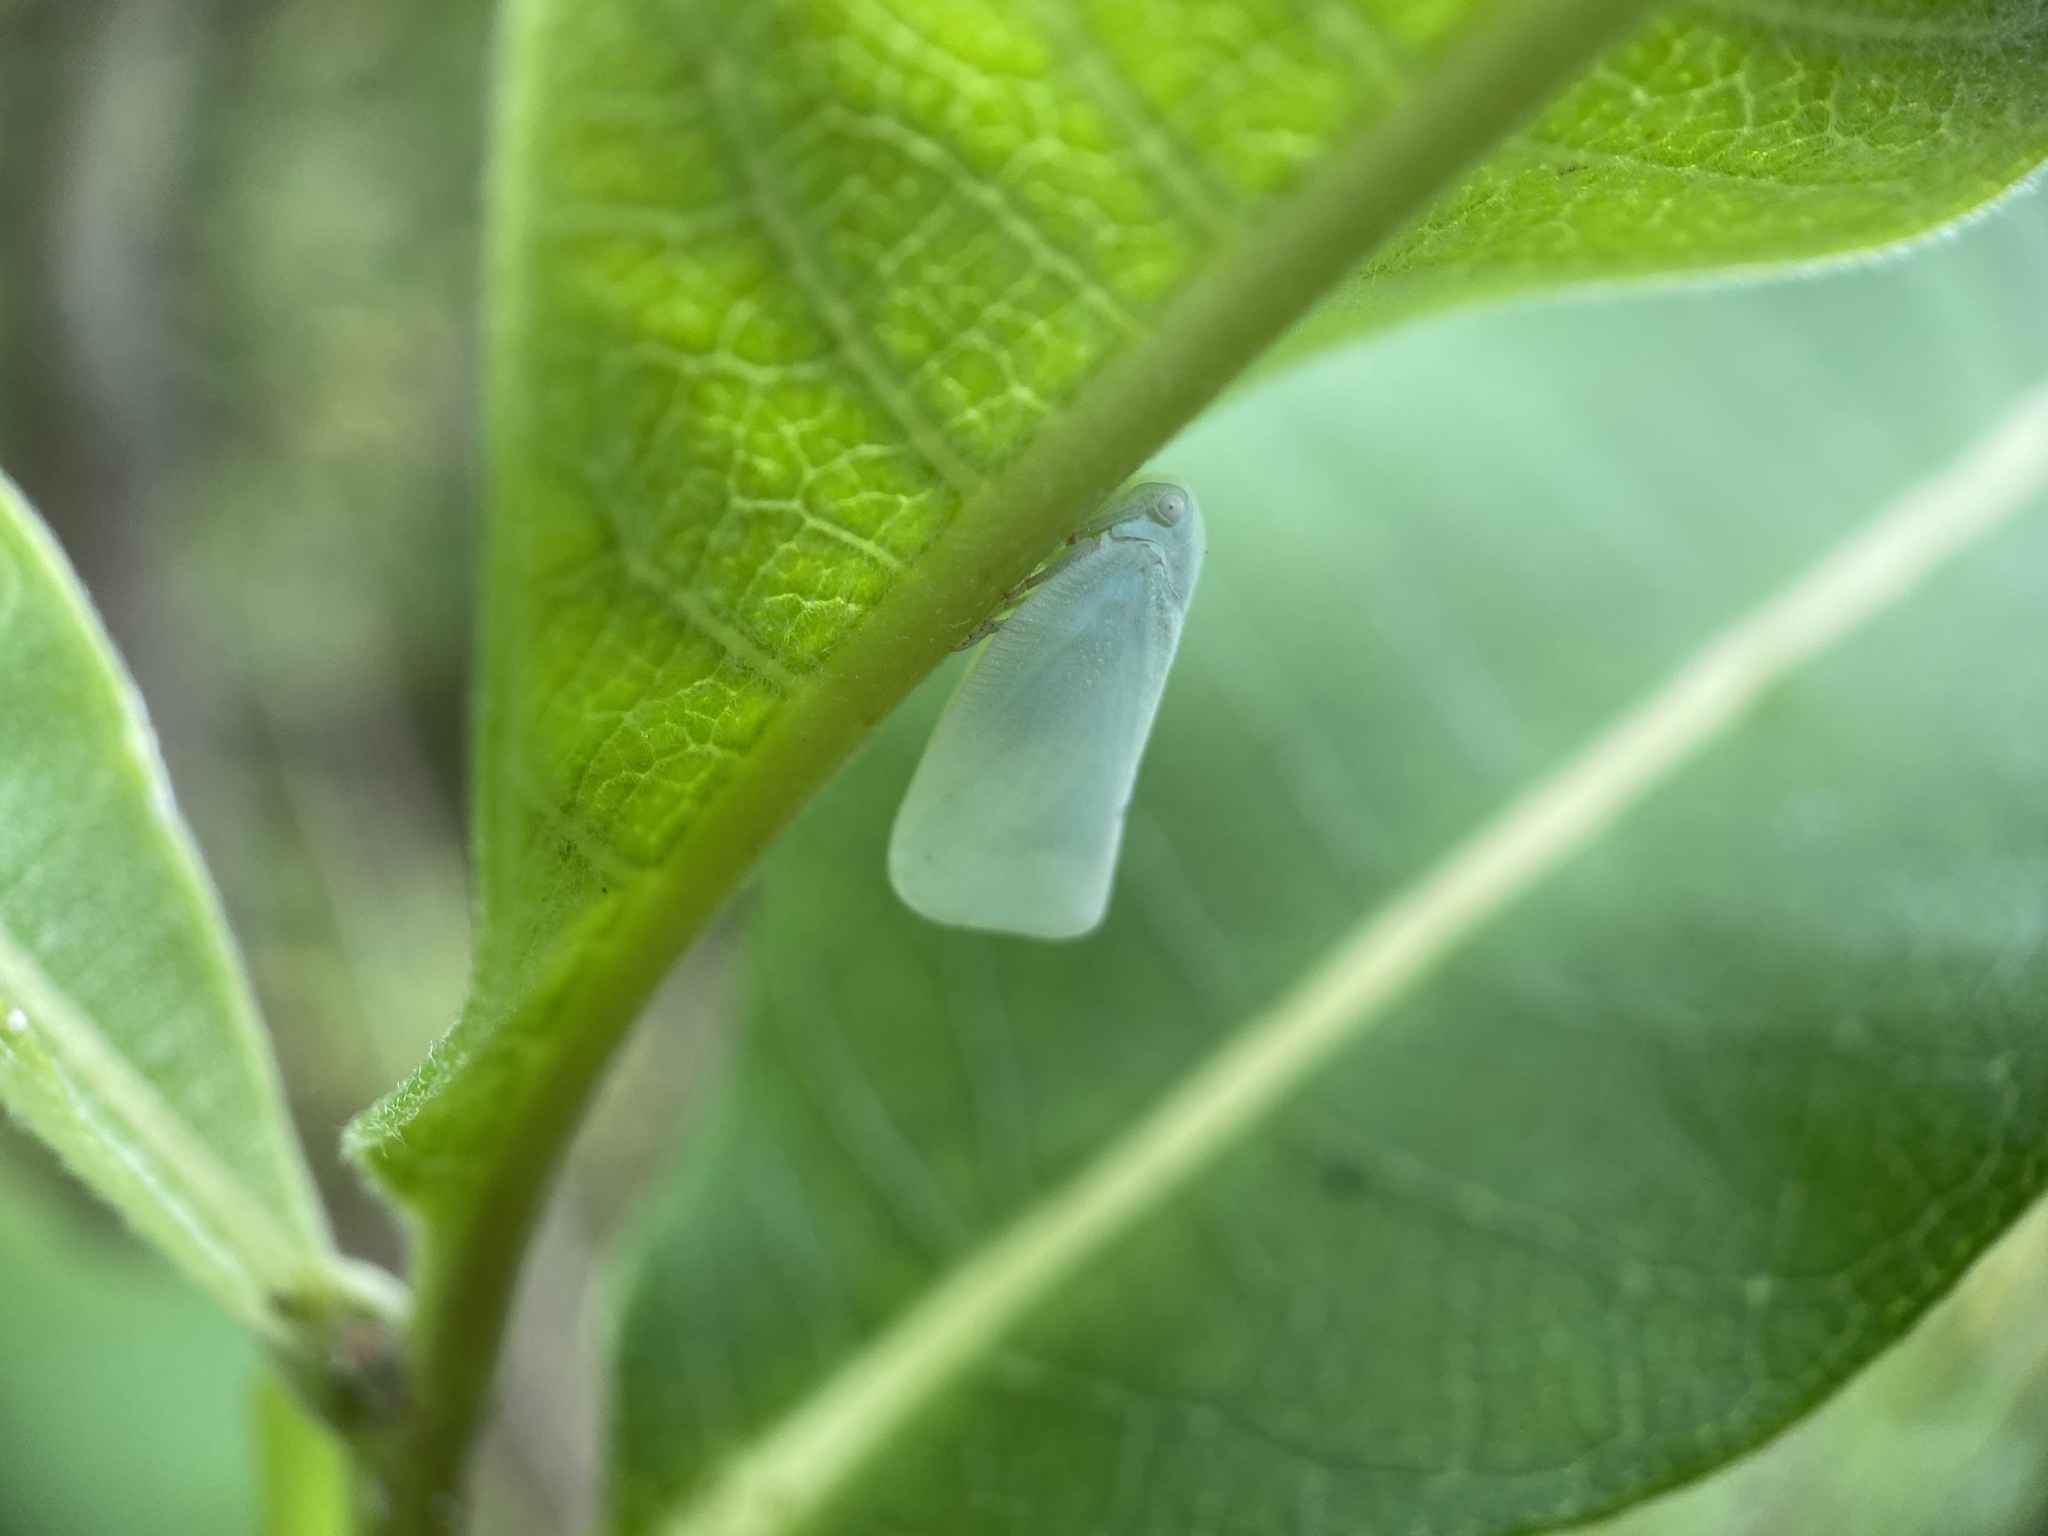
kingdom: Animalia
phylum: Arthropoda
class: Insecta
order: Hemiptera
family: Flatidae
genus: Flatormenis
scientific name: Flatormenis proxima
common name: Northern flatid planthopper
